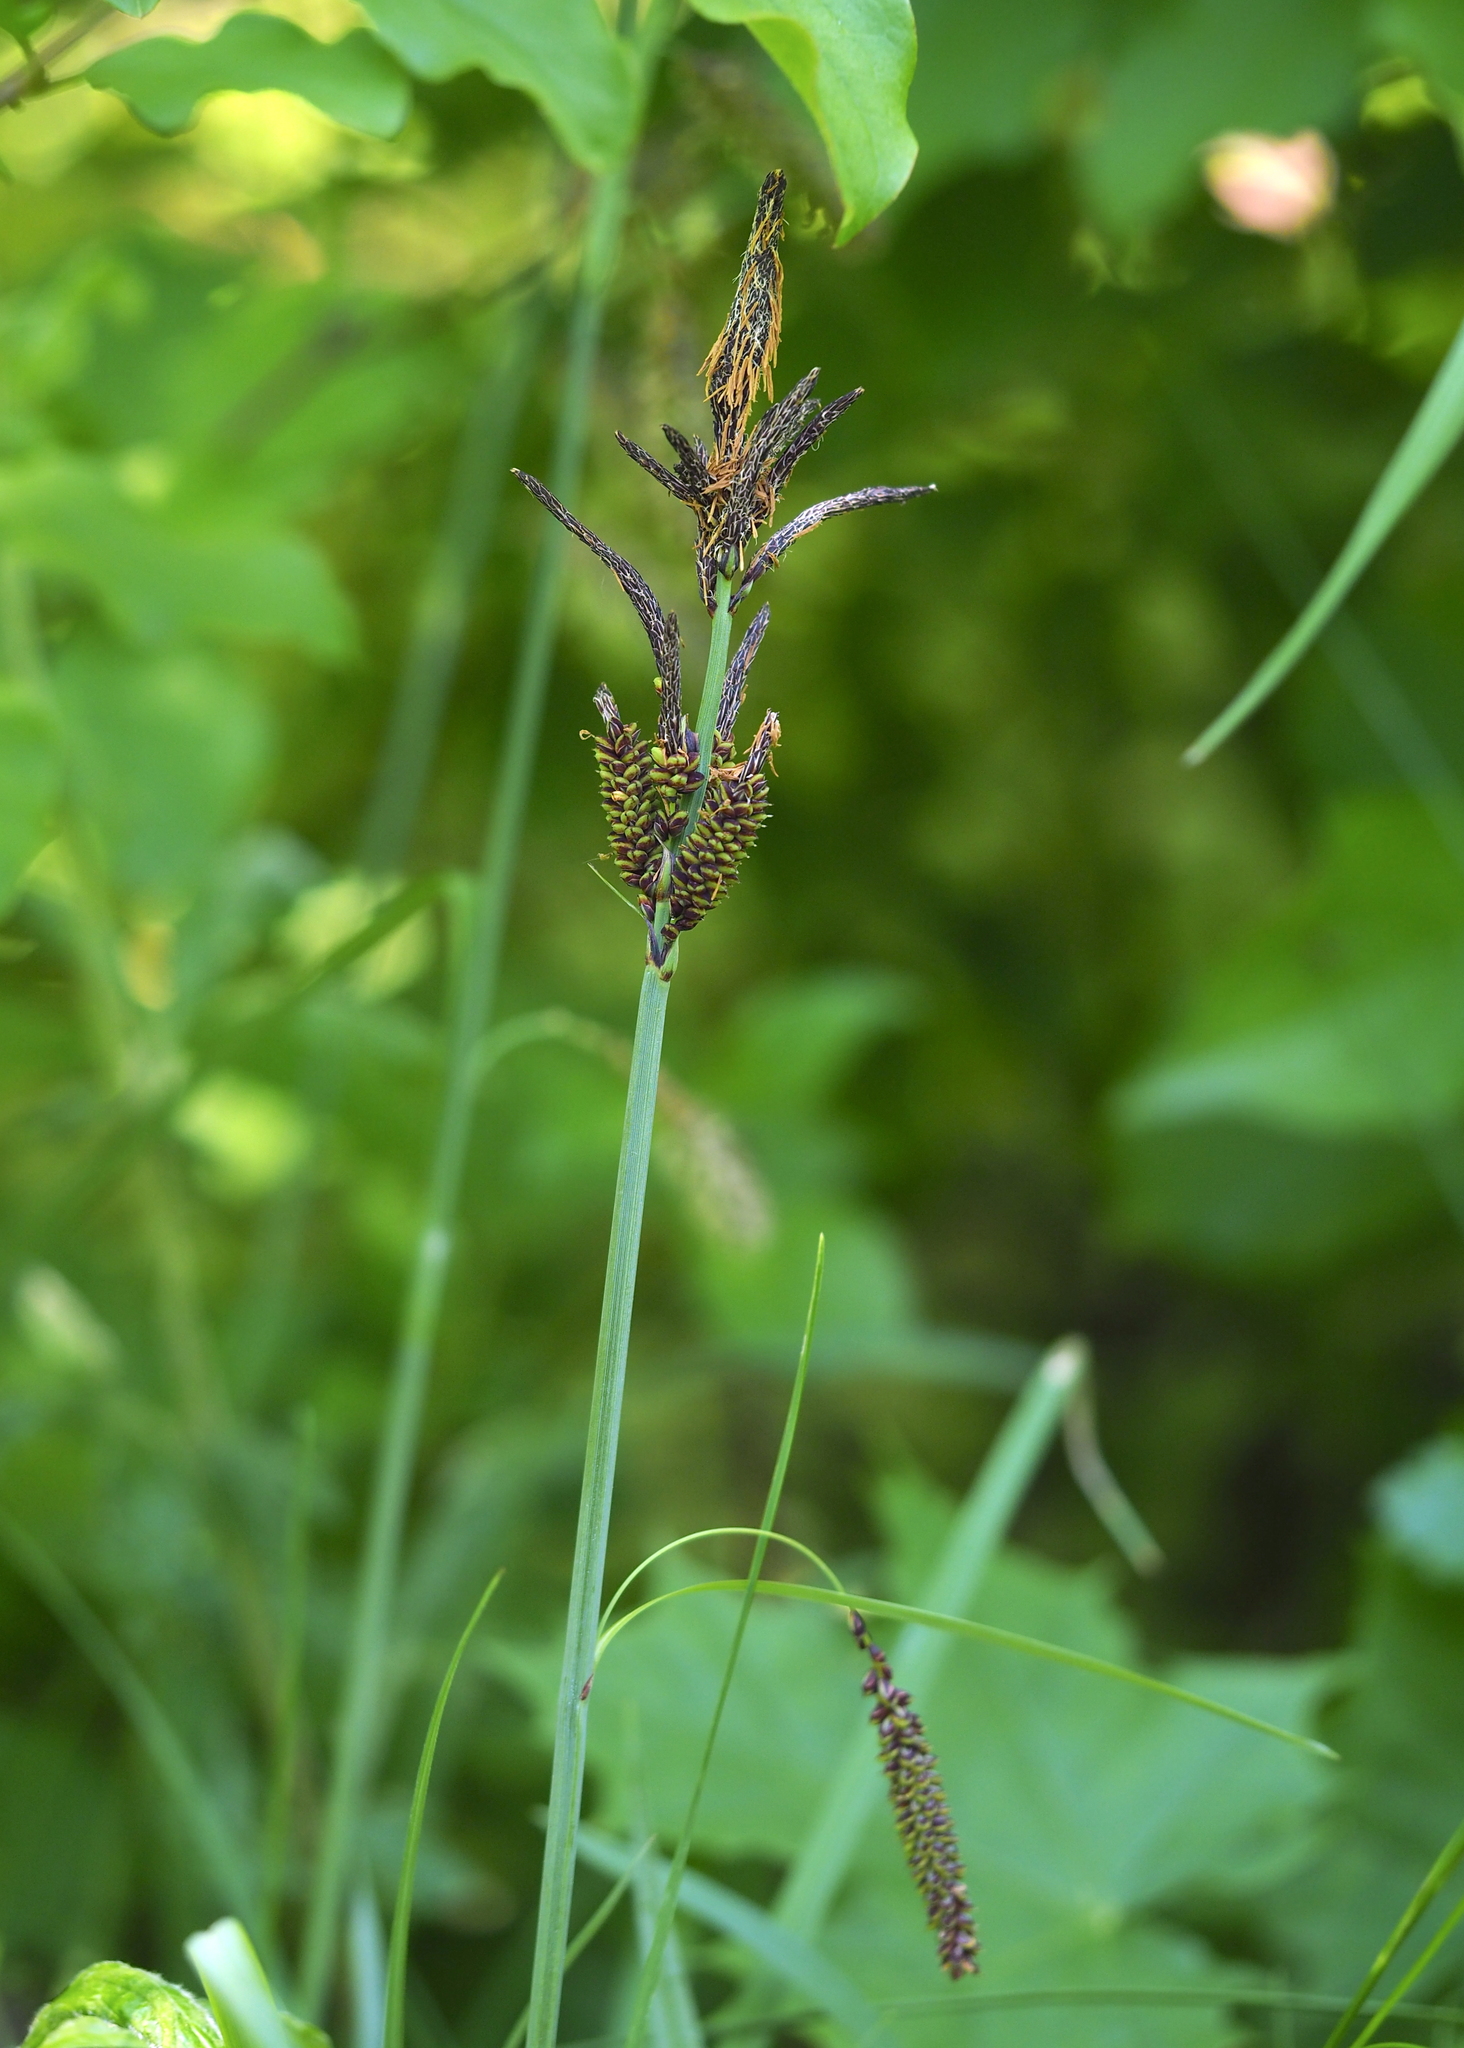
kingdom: Plantae
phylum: Tracheophyta
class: Liliopsida
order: Poales
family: Cyperaceae
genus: Carex
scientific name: Carex flacca
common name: Glaucous sedge
